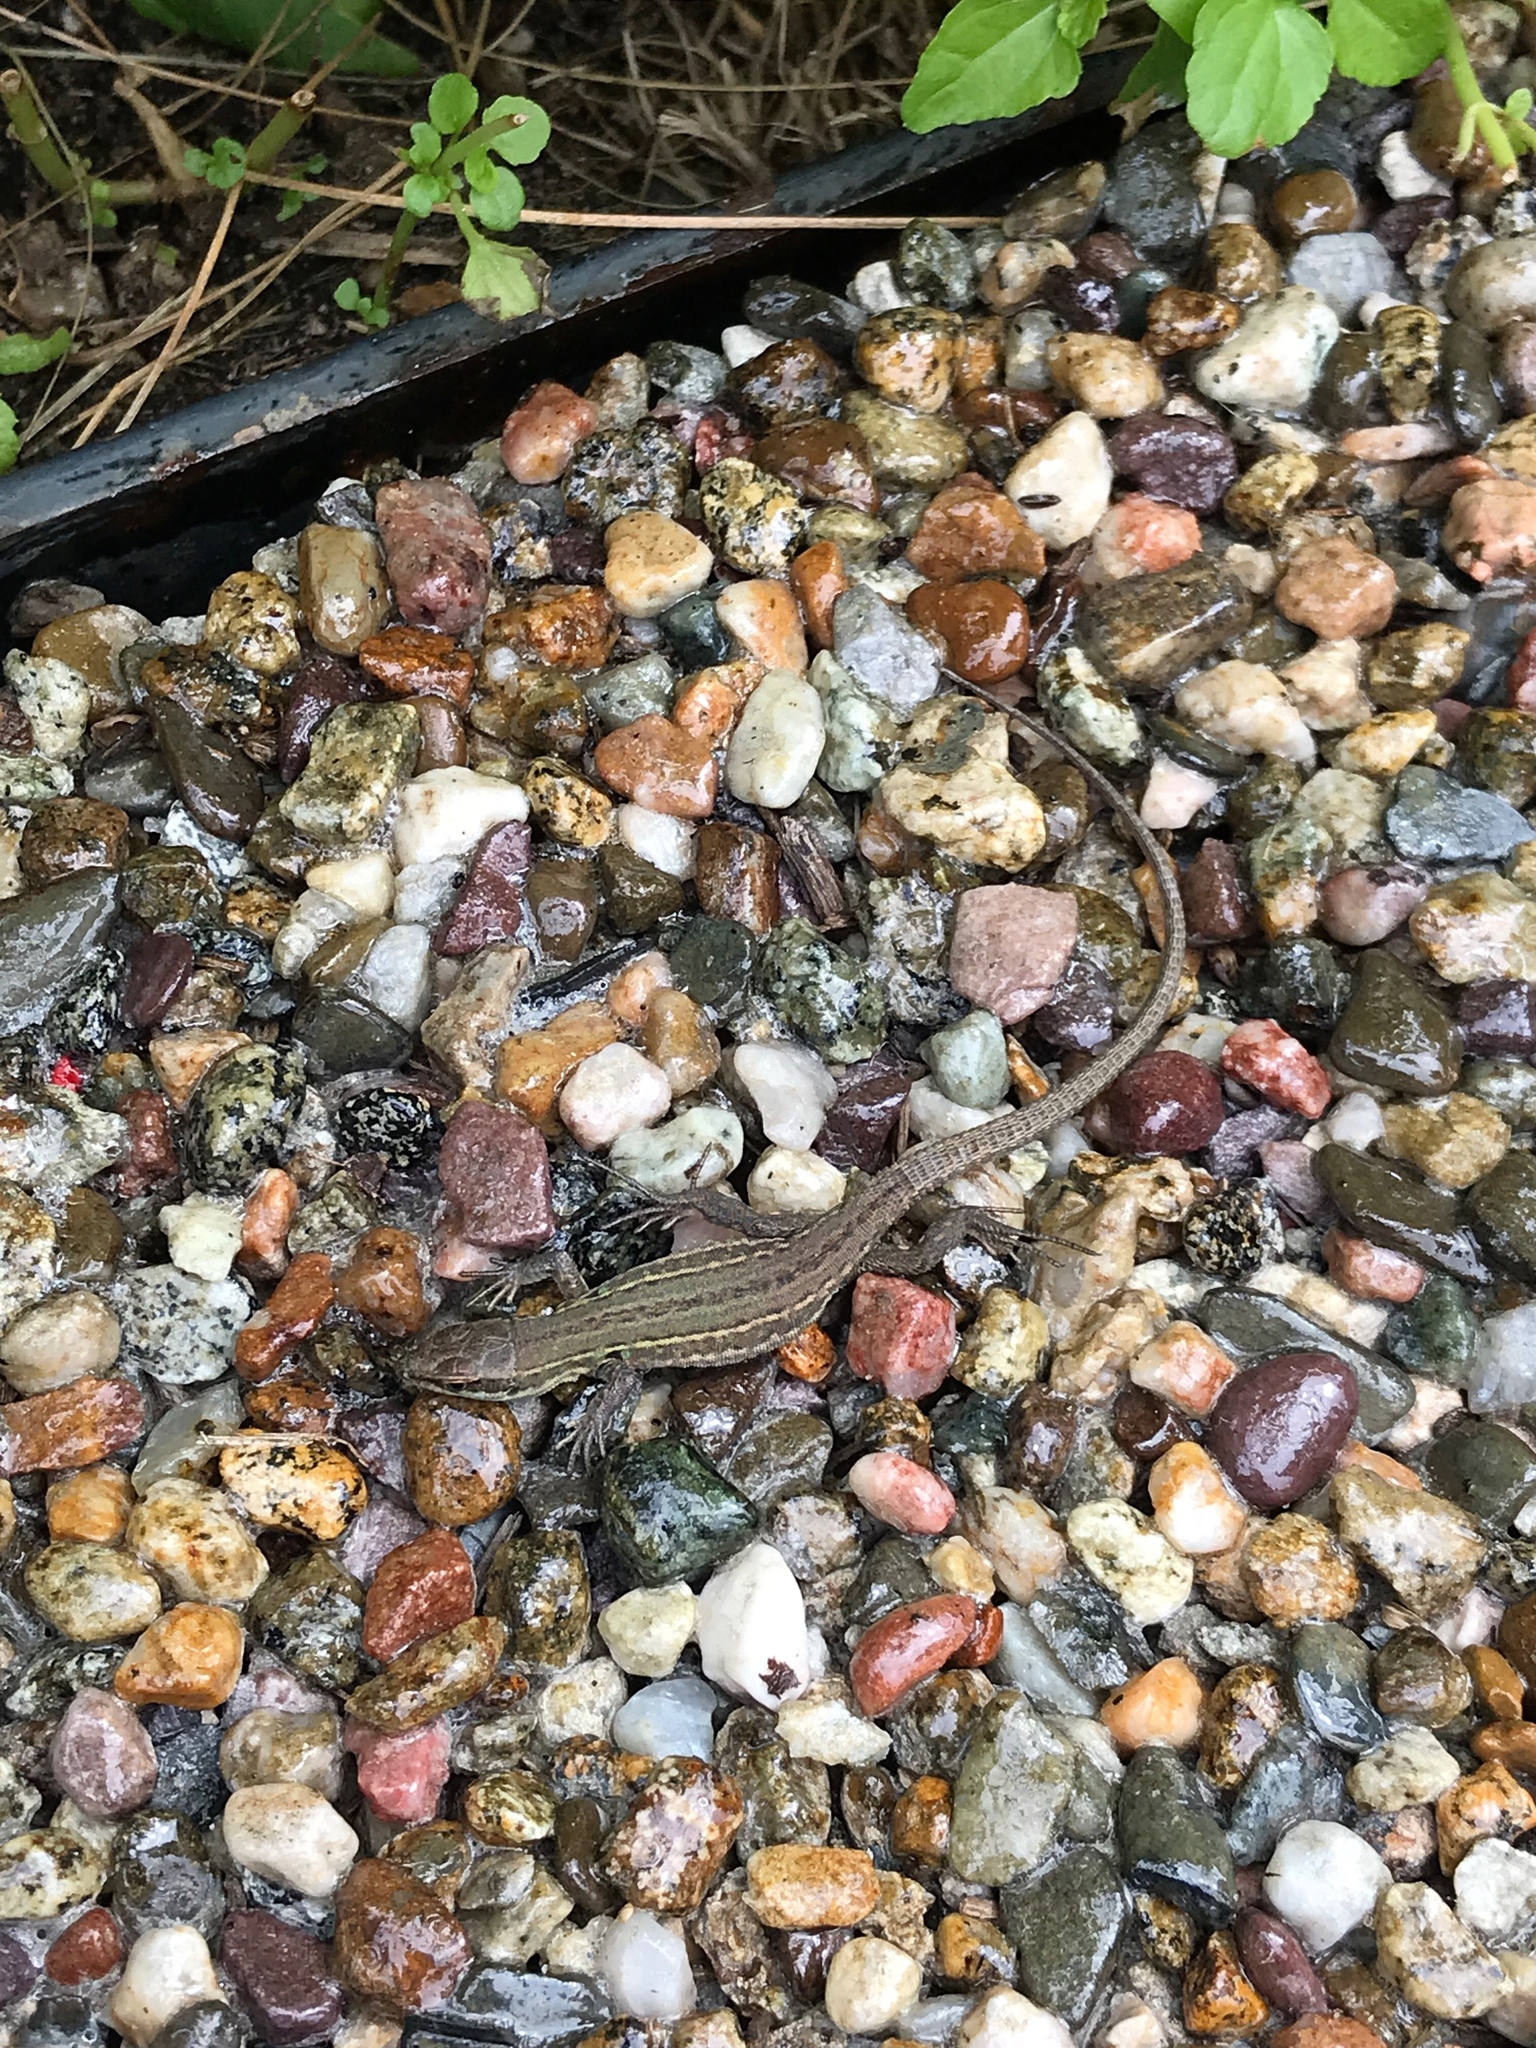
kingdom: Animalia
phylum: Chordata
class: Squamata
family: Lacertidae
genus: Podarcis
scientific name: Podarcis siculus
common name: Italian wall lizard
